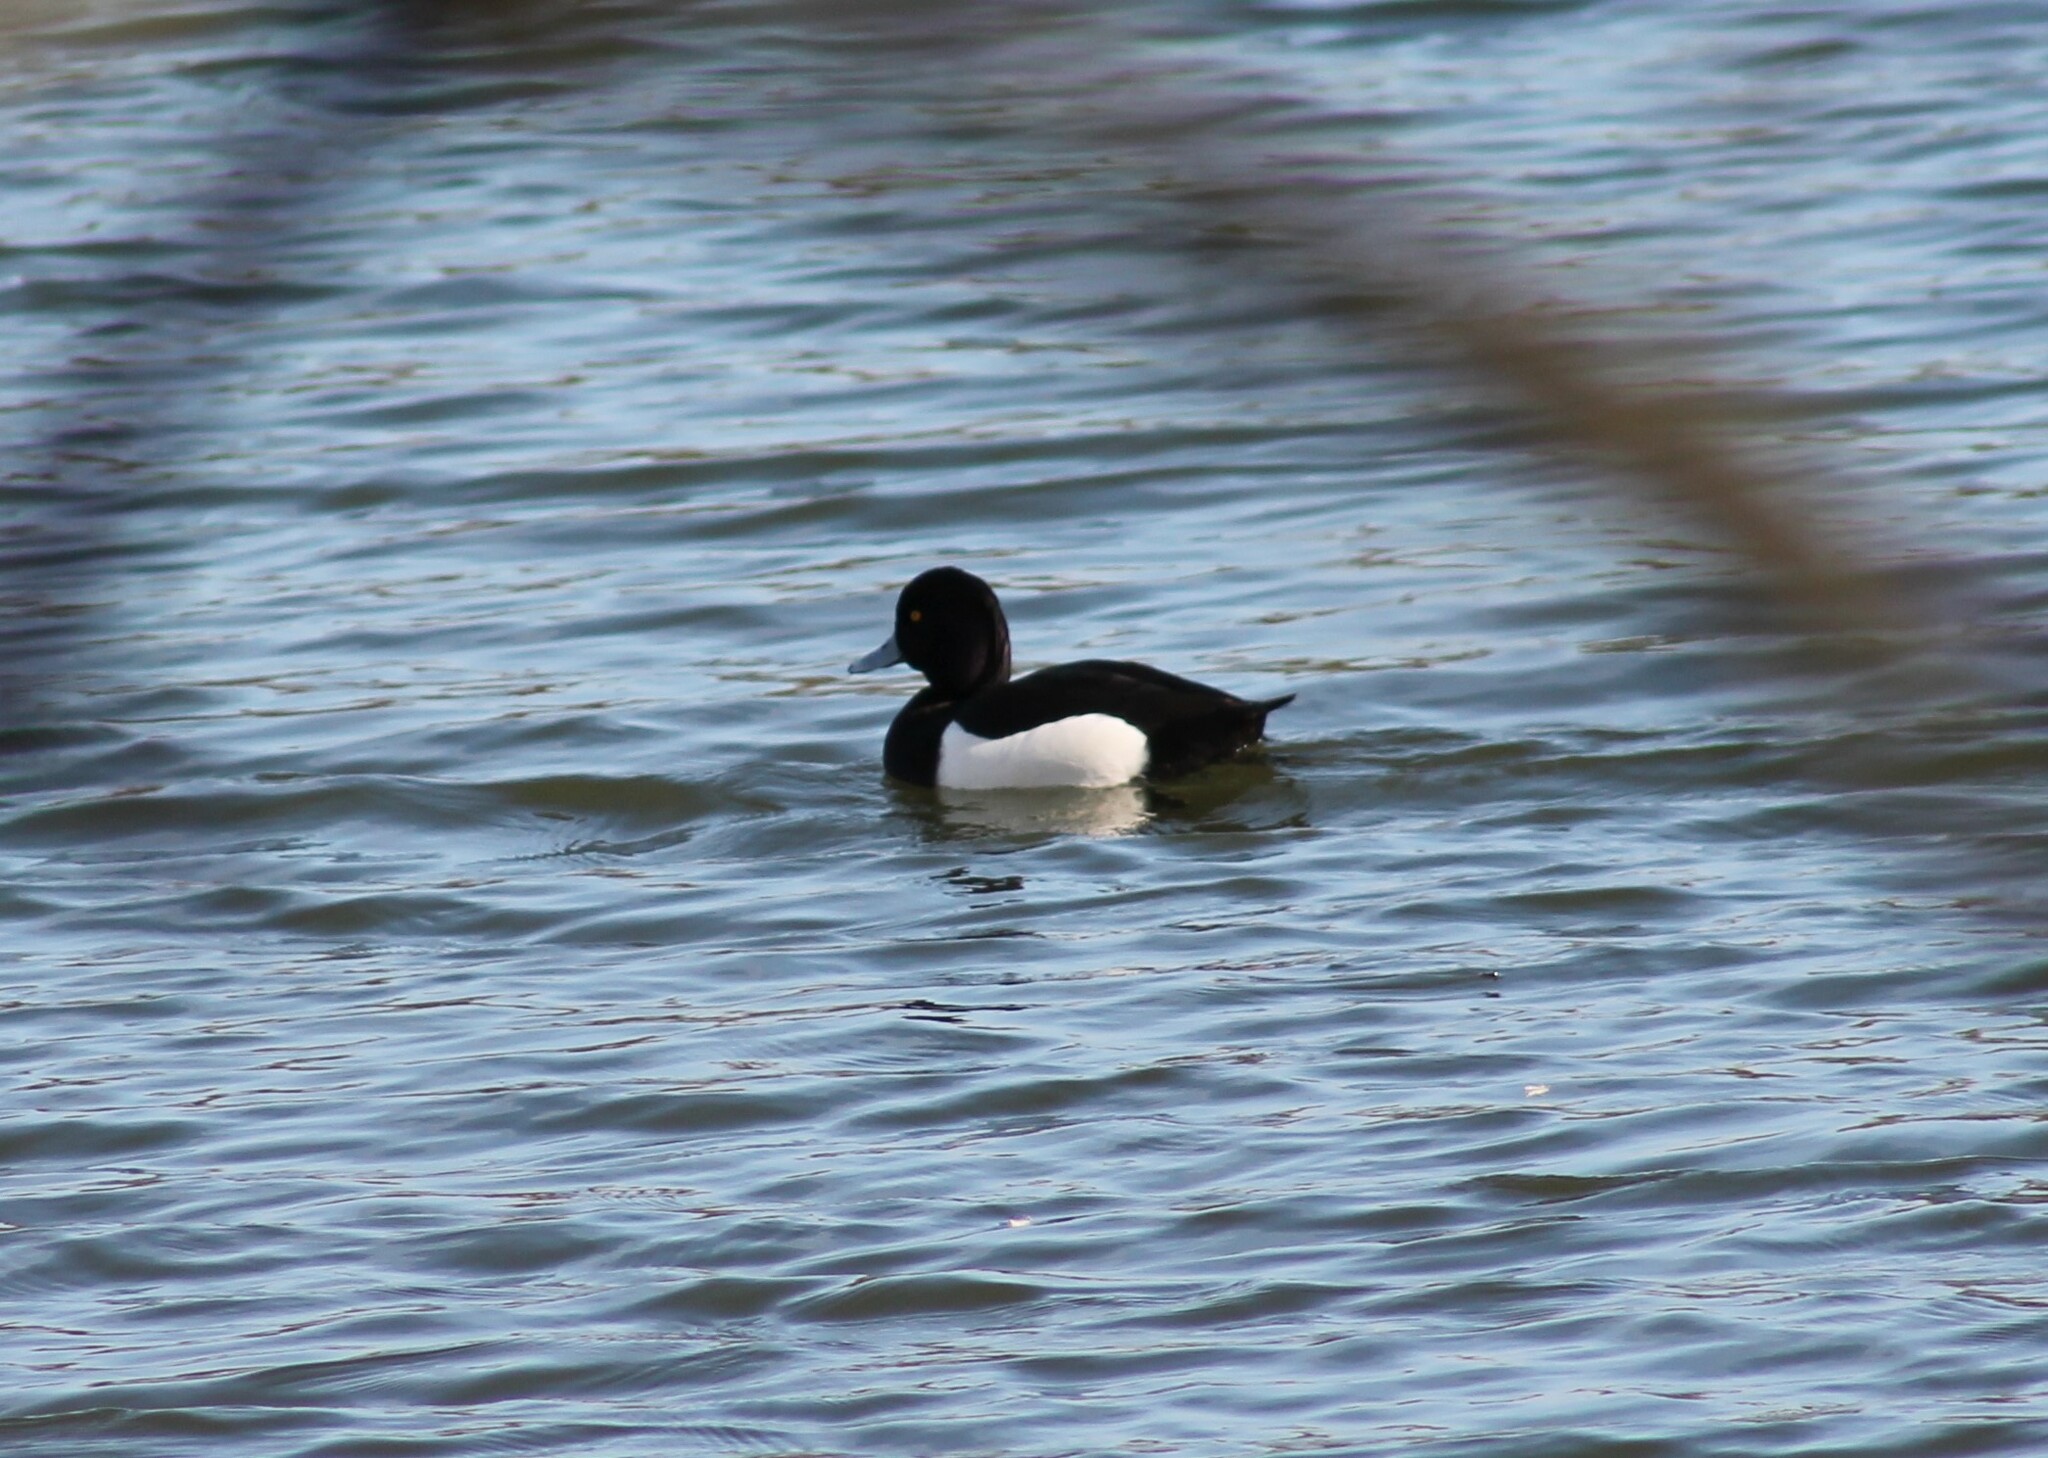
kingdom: Animalia
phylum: Chordata
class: Aves
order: Anseriformes
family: Anatidae
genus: Aythya
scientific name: Aythya fuligula
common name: Tufted duck
